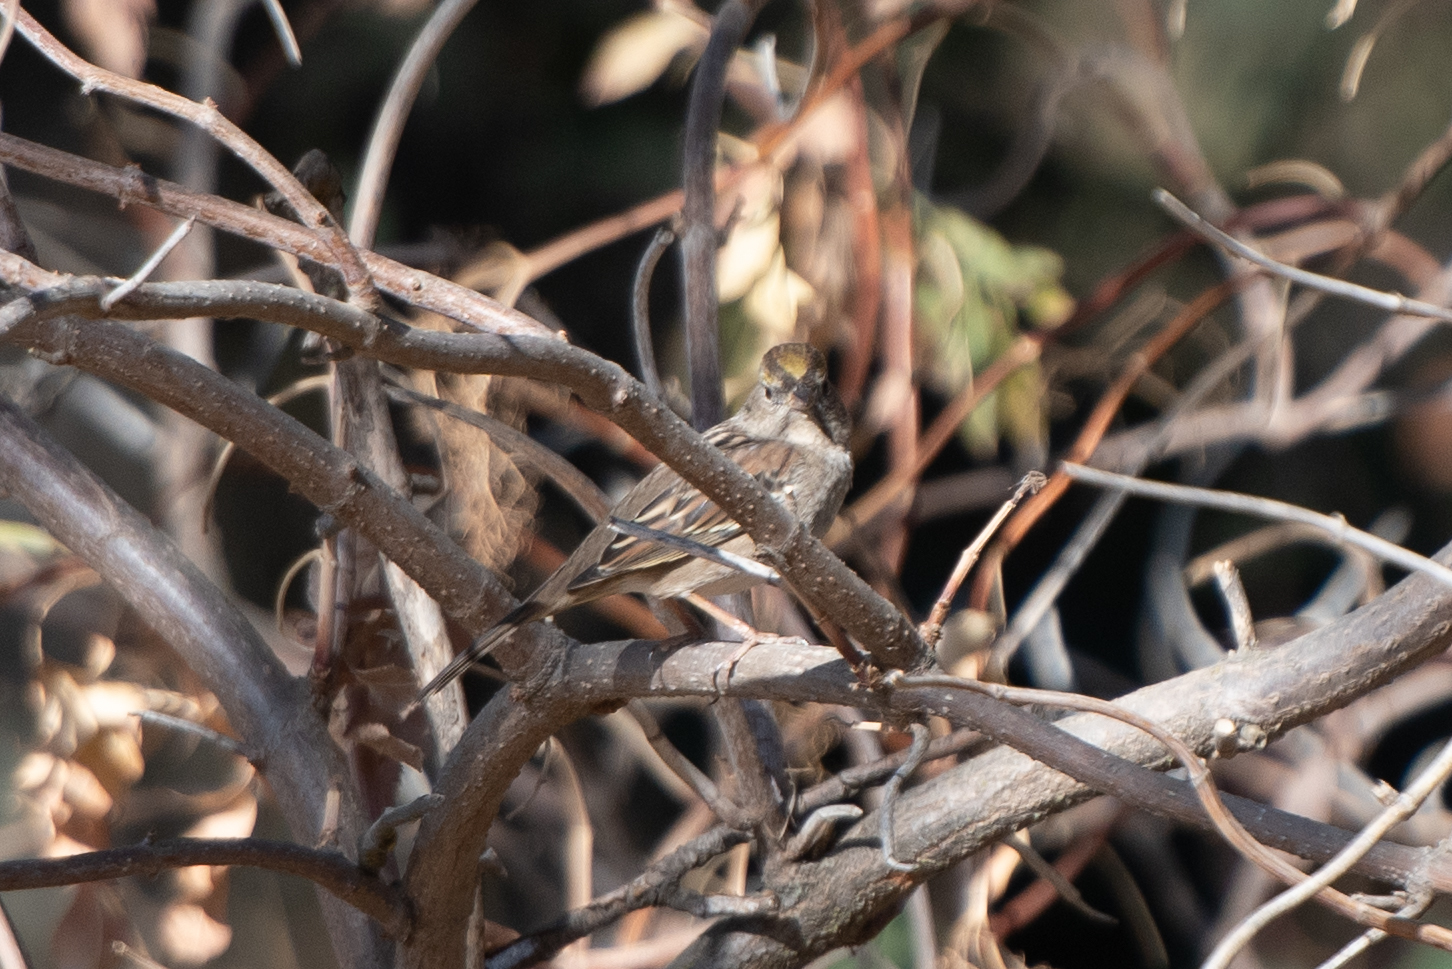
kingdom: Animalia
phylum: Chordata
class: Aves
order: Passeriformes
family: Passerellidae
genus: Zonotrichia
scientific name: Zonotrichia atricapilla
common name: Golden-crowned sparrow
